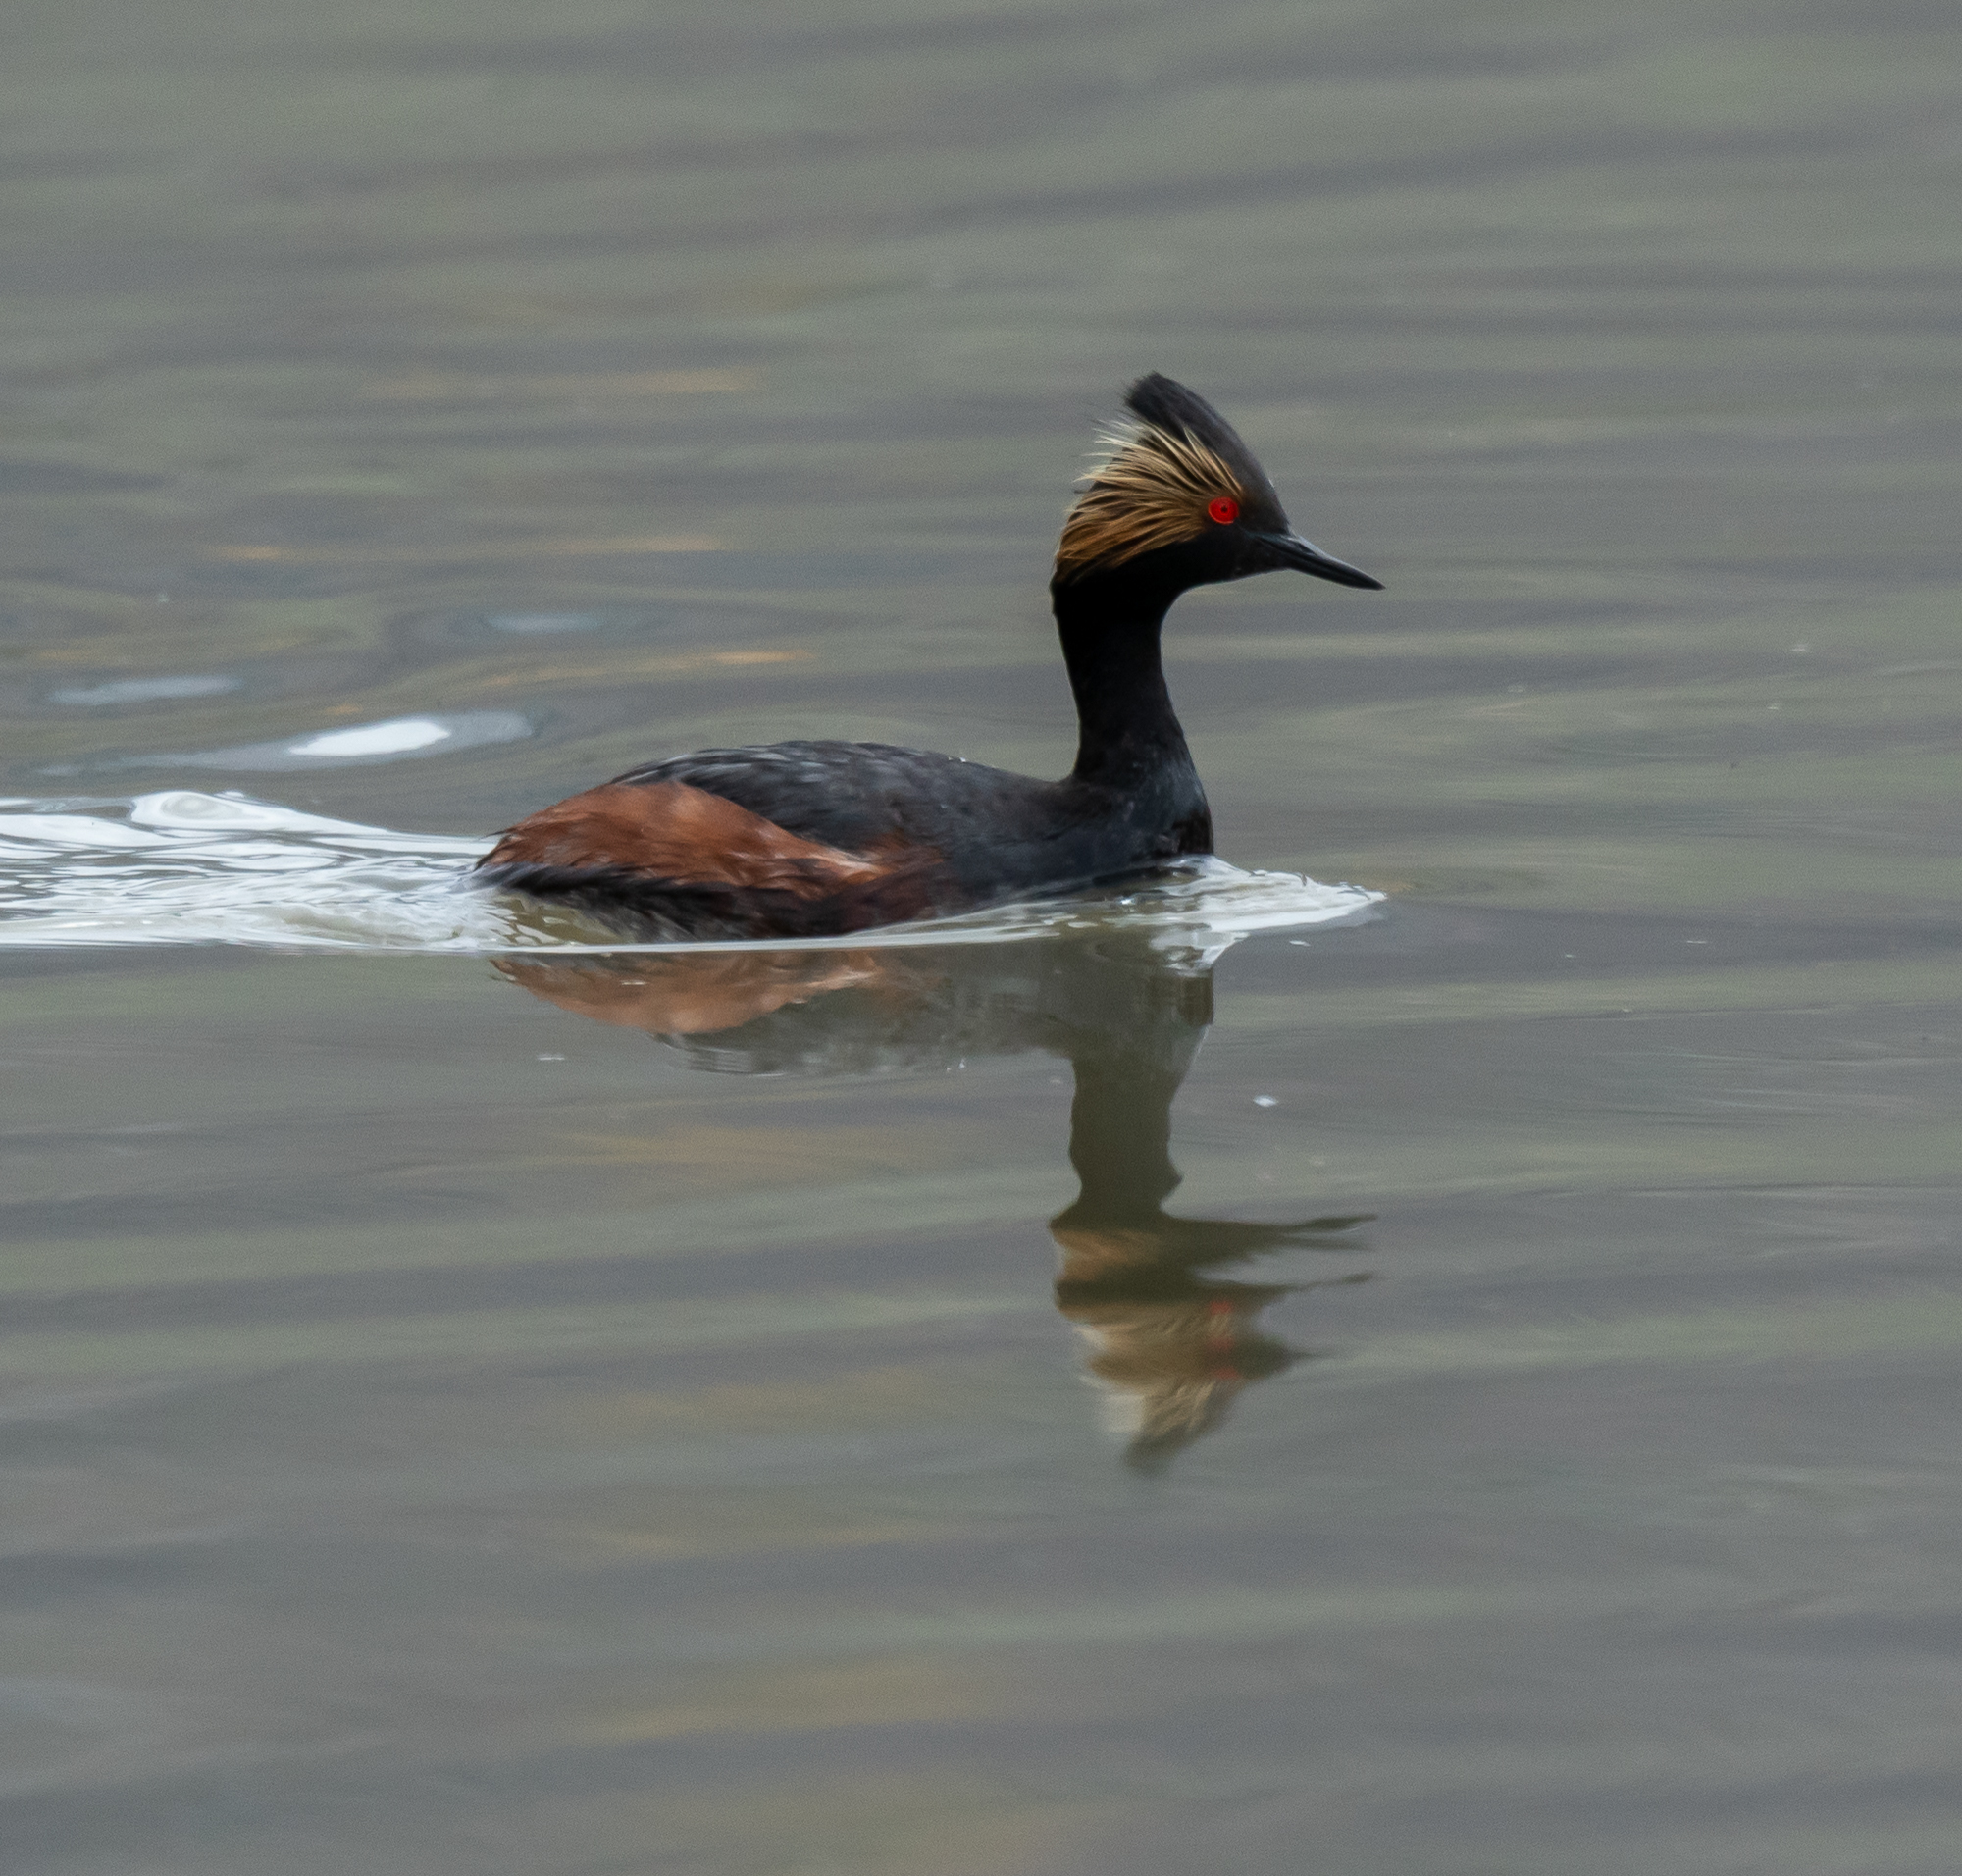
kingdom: Animalia
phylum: Chordata
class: Aves
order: Podicipediformes
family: Podicipedidae
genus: Podiceps
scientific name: Podiceps nigricollis
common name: Black-necked grebe
